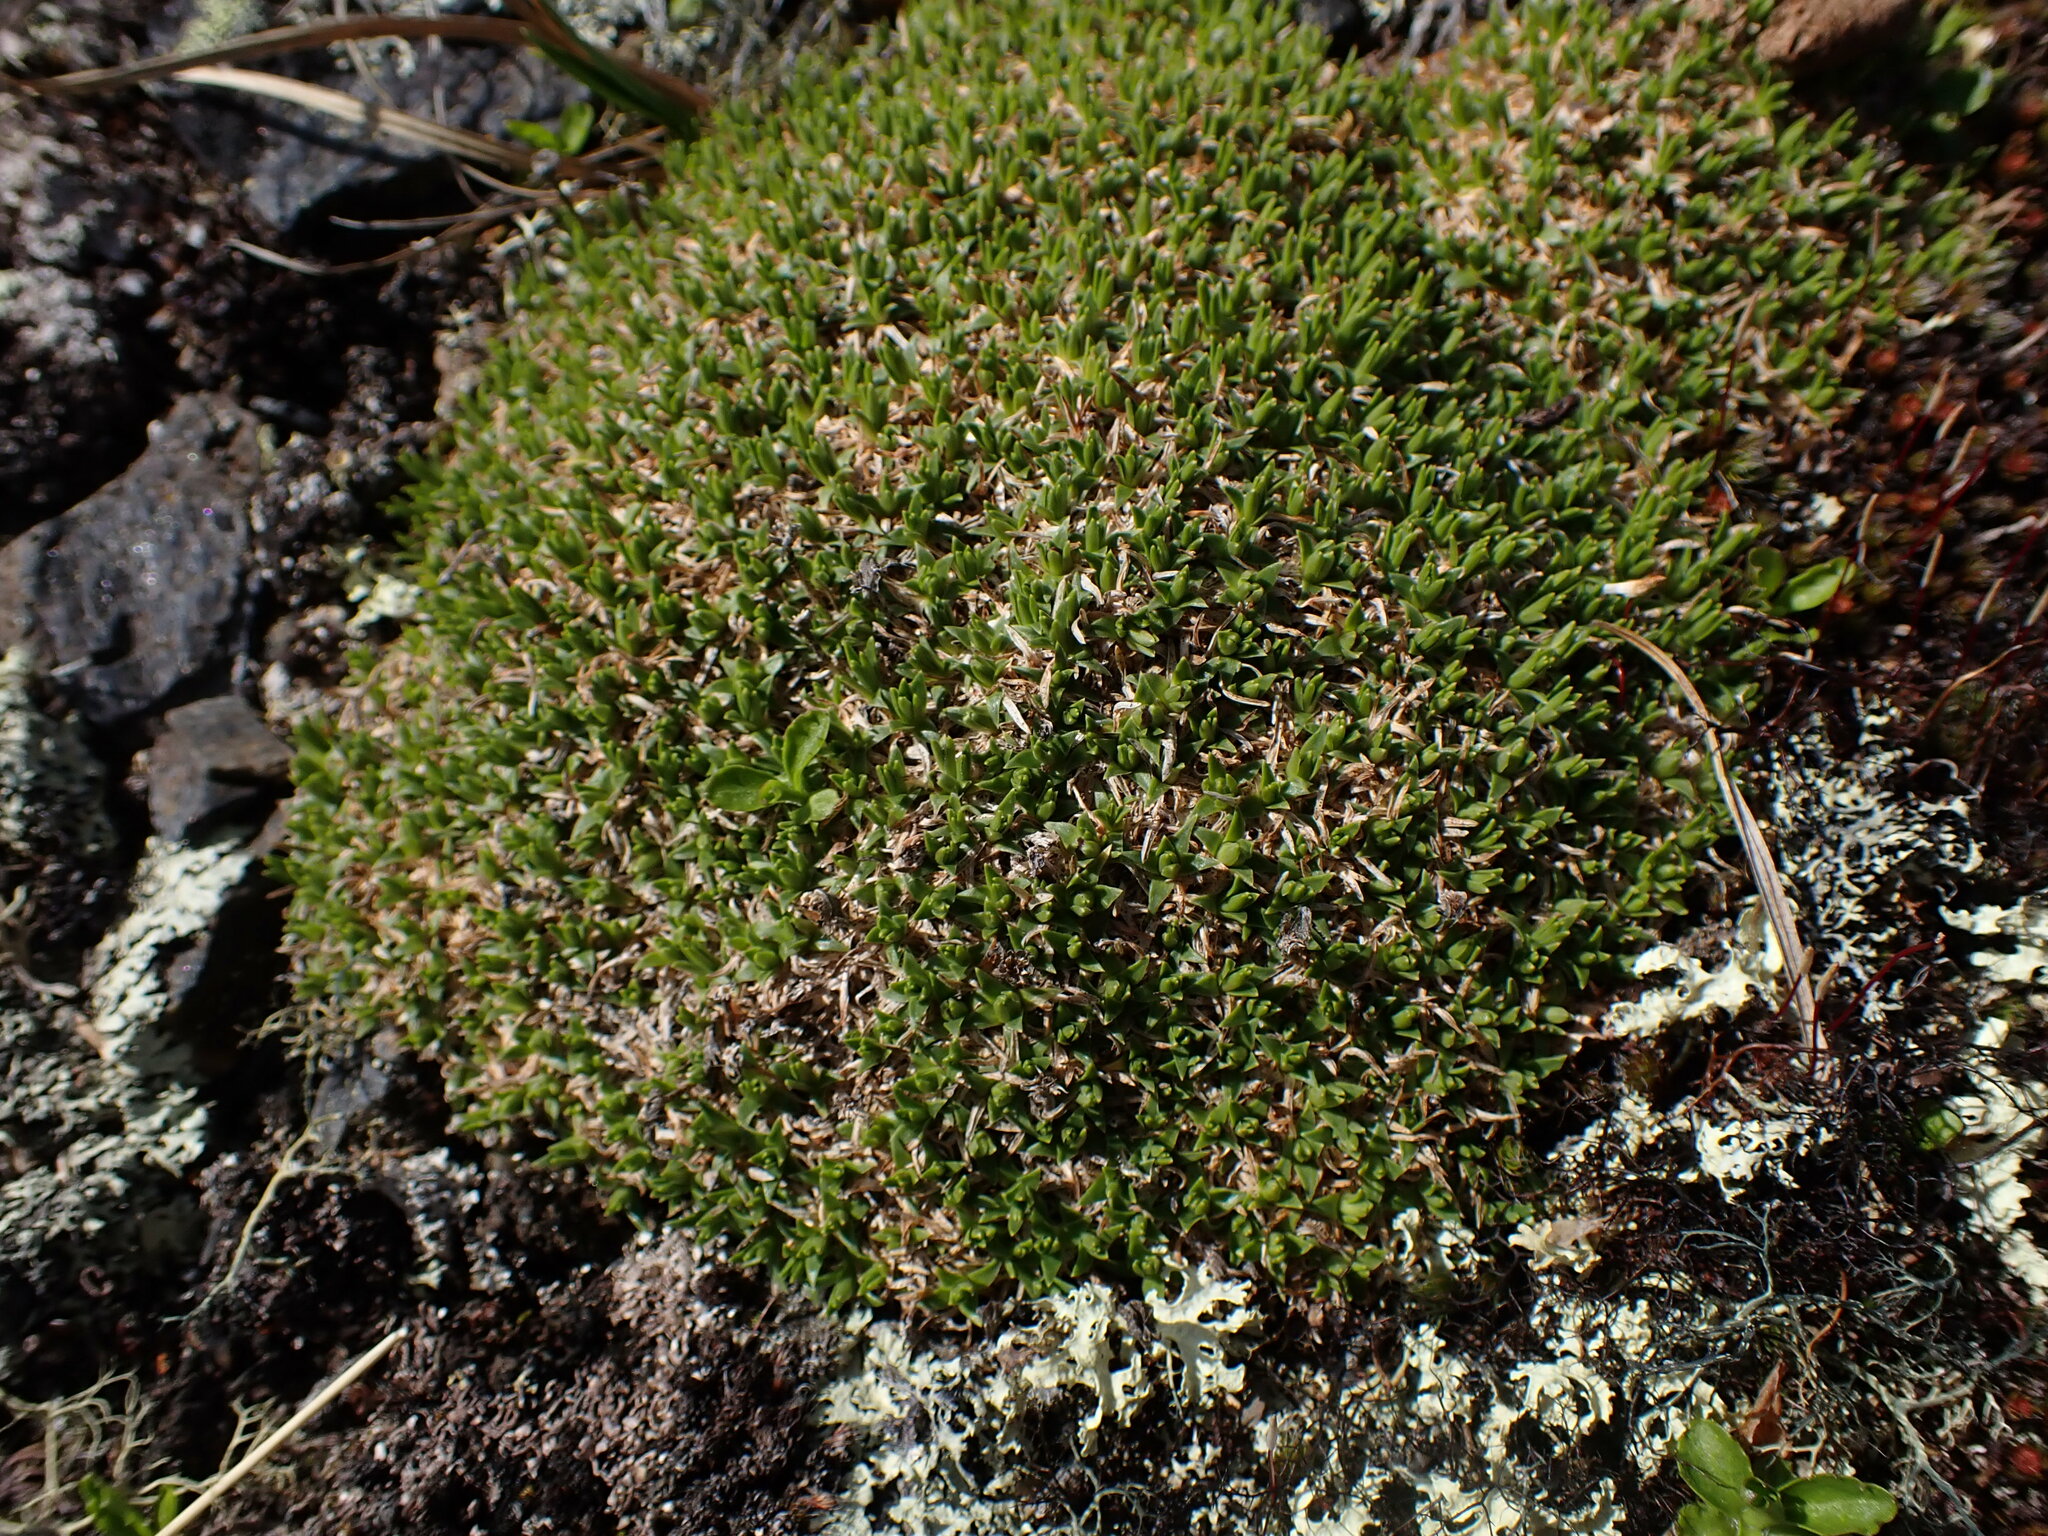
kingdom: Plantae
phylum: Tracheophyta
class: Magnoliopsida
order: Caryophyllales
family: Caryophyllaceae
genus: Silene
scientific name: Silene acaulis
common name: Moss campion
